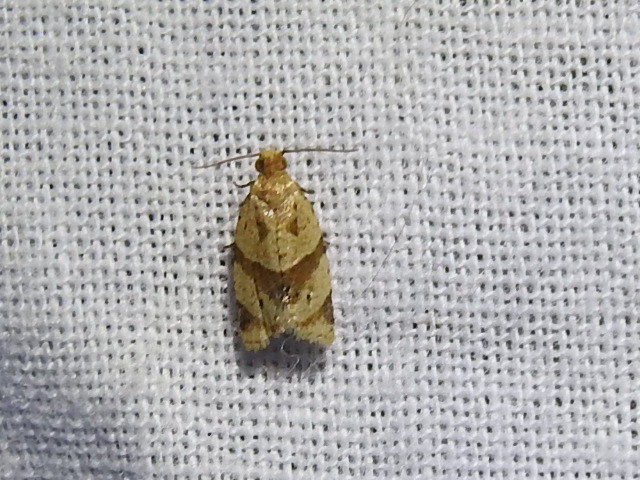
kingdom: Animalia
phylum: Arthropoda
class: Insecta
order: Lepidoptera
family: Tortricidae
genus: Clepsis
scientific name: Clepsis peritana
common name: Garden tortrix
